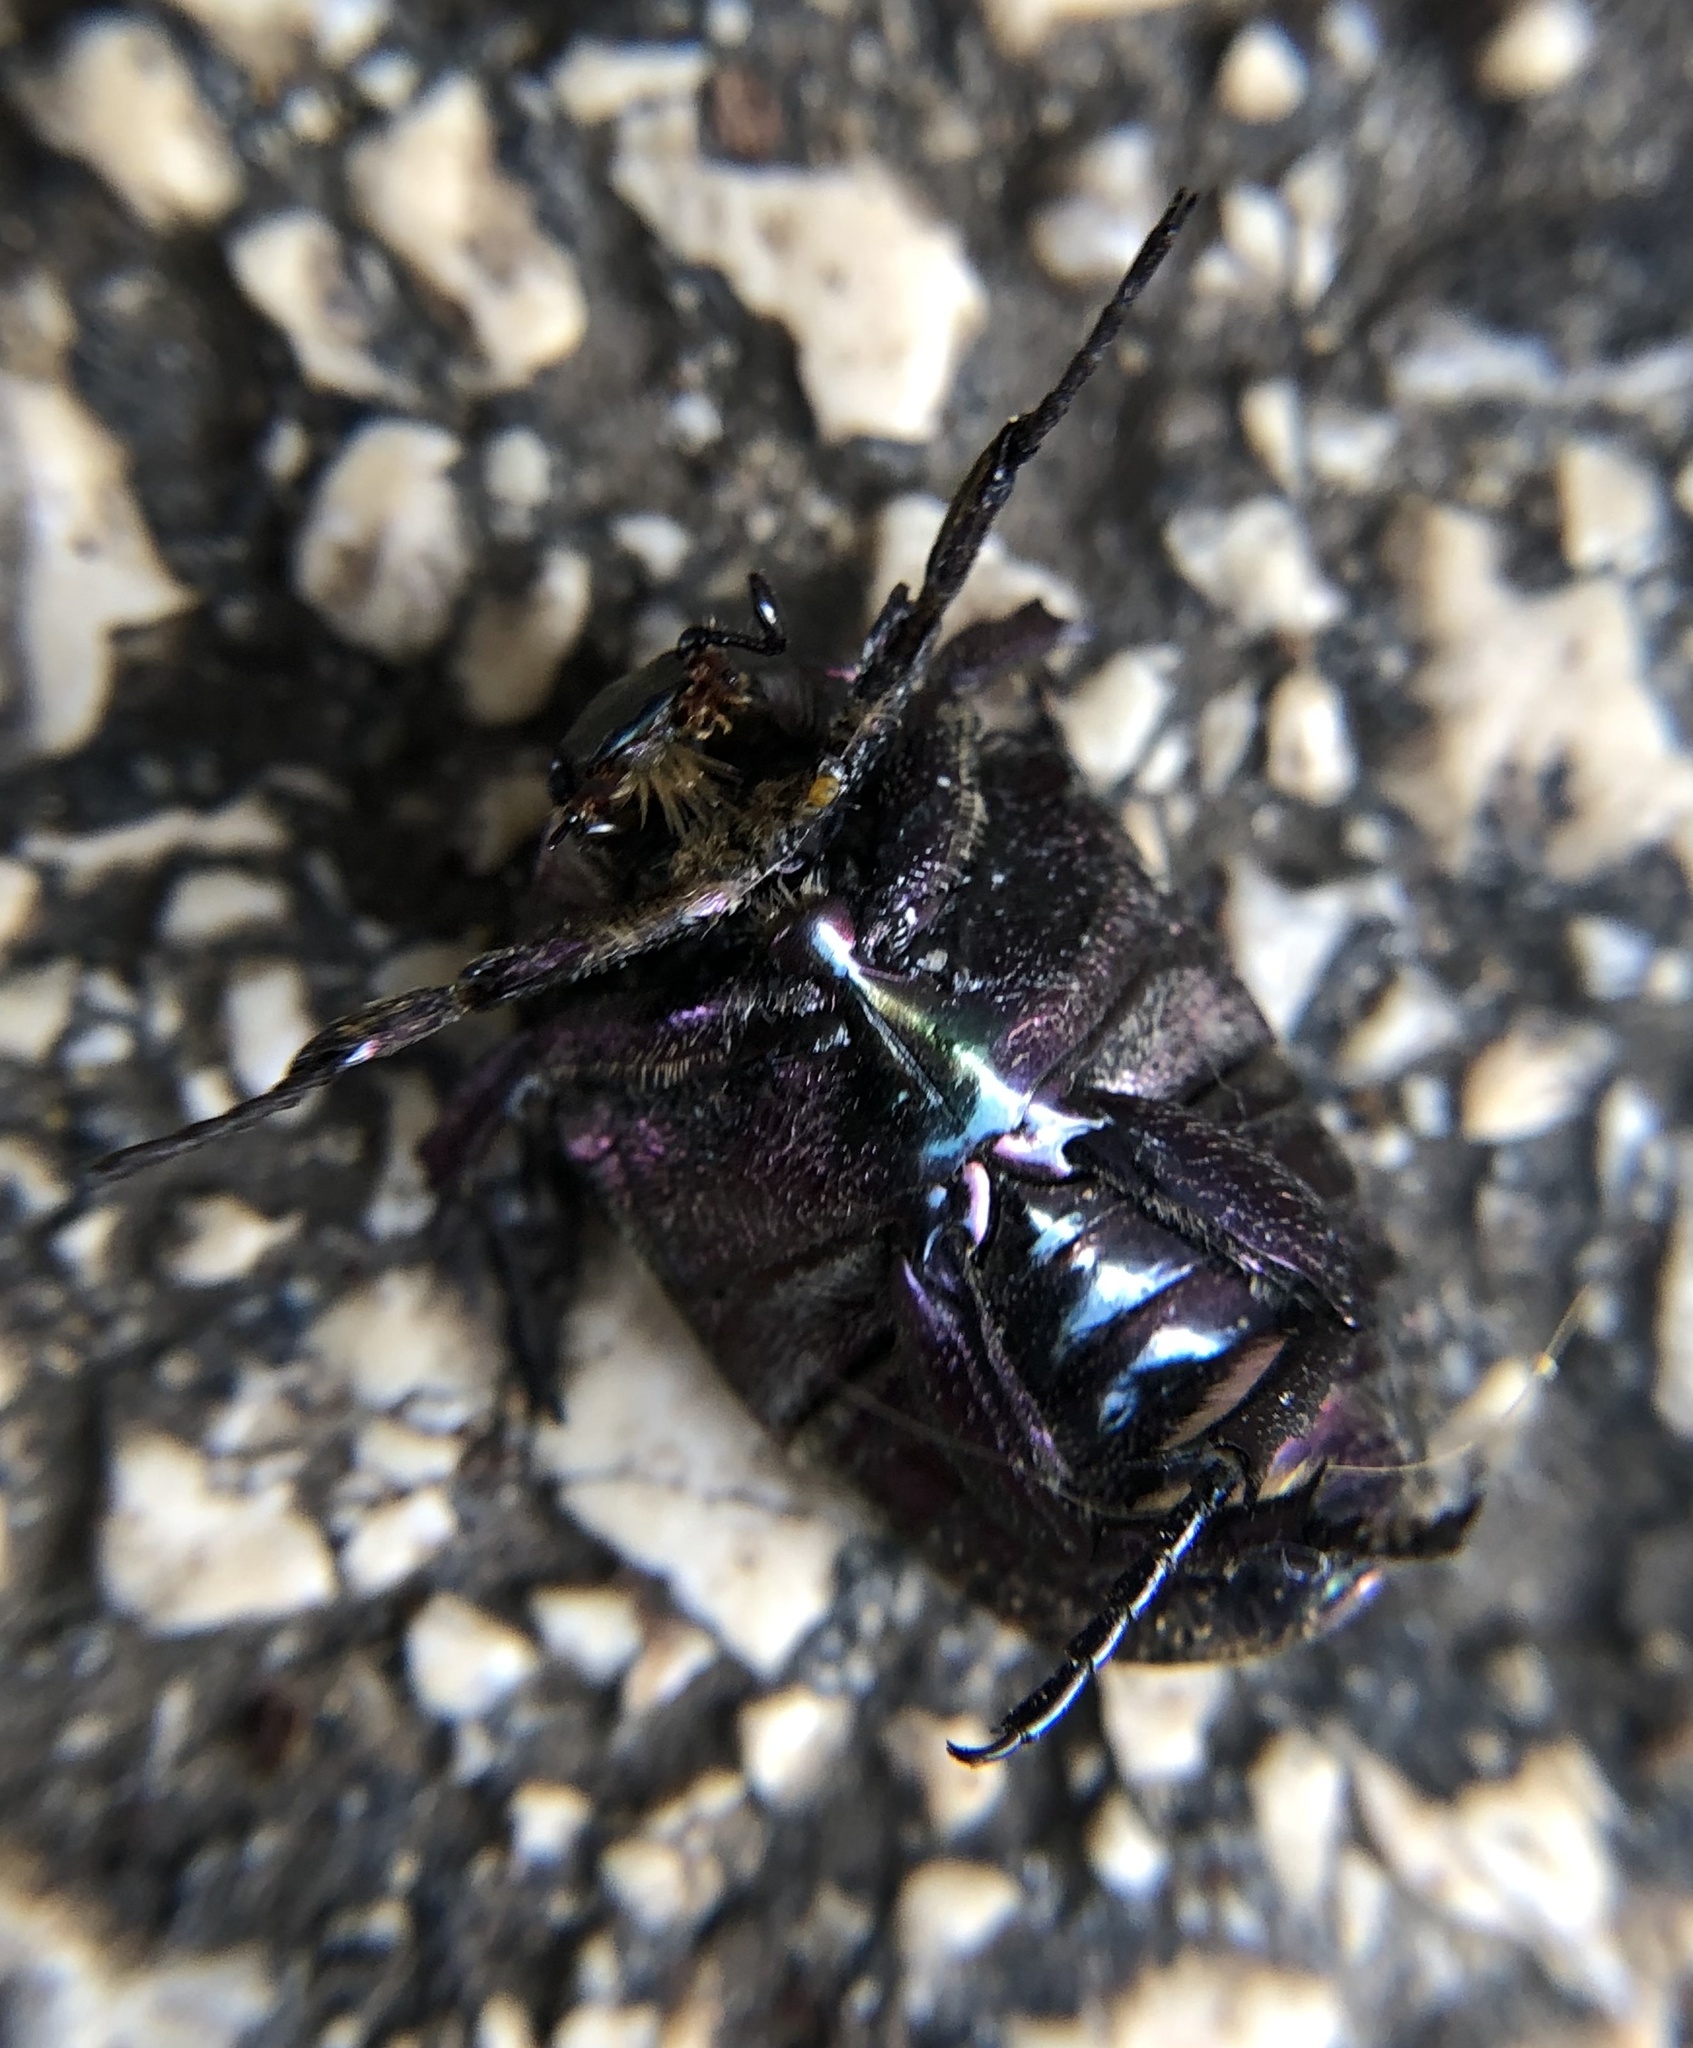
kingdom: Animalia
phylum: Arthropoda
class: Insecta
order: Coleoptera
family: Scarabaeidae
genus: Protaetia
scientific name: Protaetia cuprea
